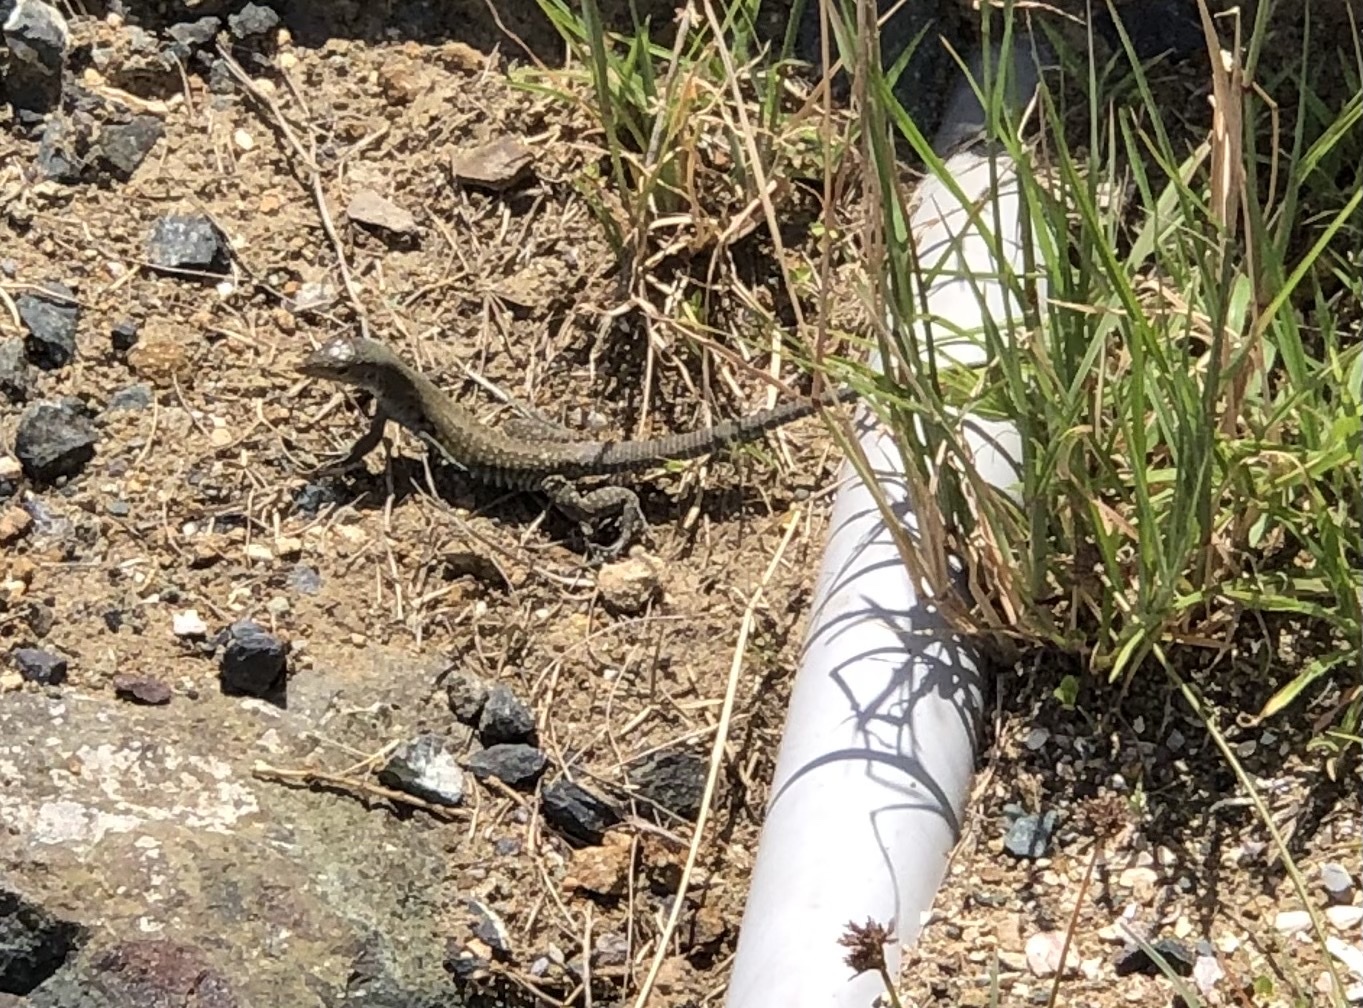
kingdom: Animalia
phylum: Chordata
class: Squamata
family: Teiidae
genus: Pholidoscelis
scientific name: Pholidoscelis exsul
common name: Common puerto rican ameiva
